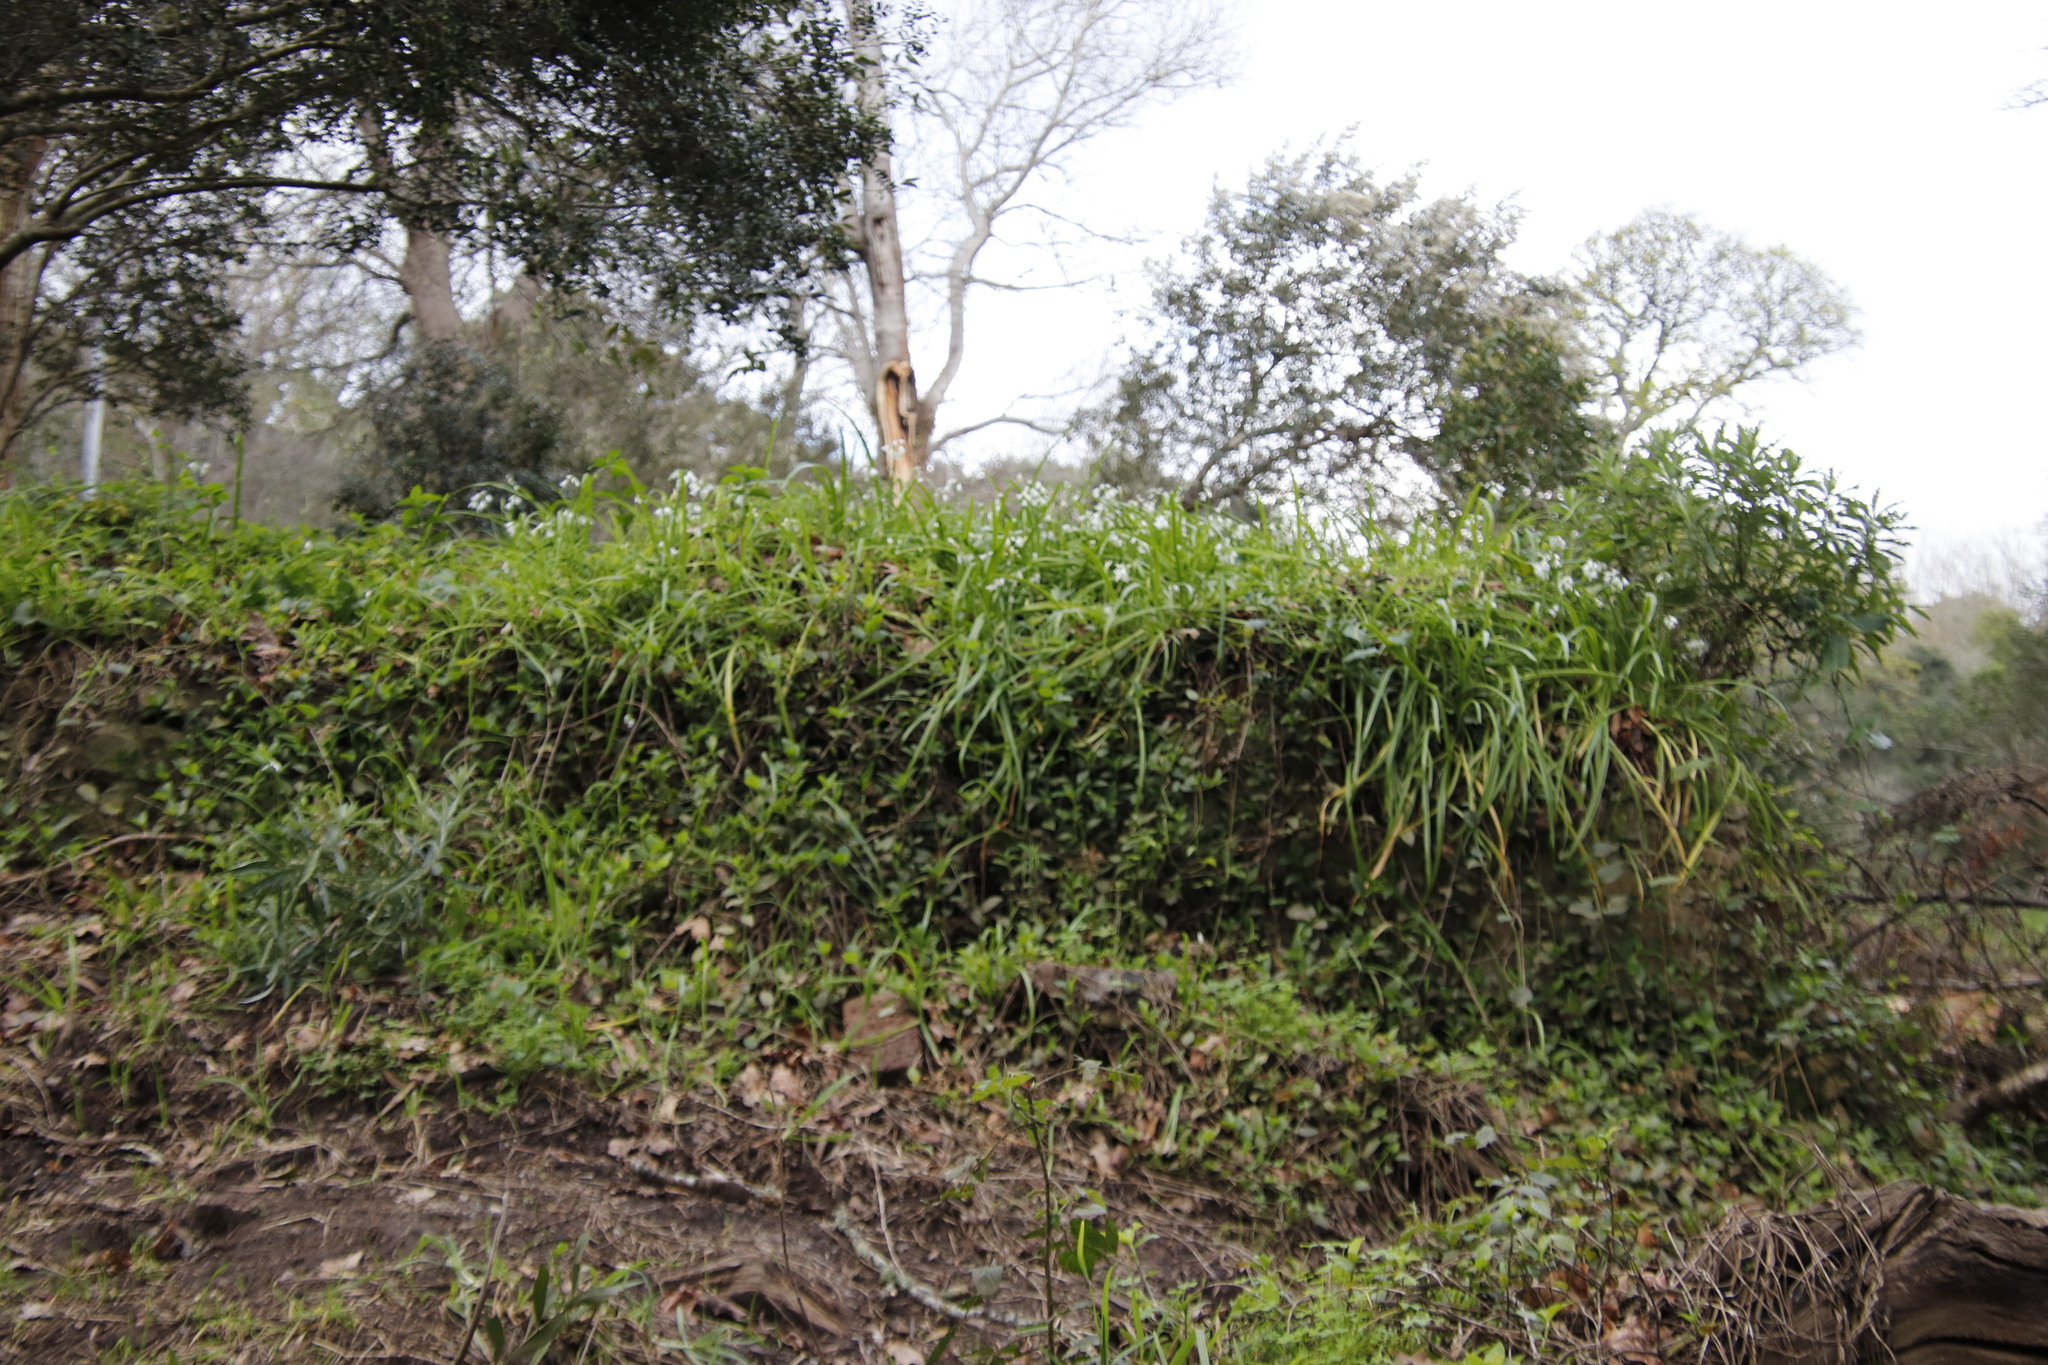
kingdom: Plantae
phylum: Tracheophyta
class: Liliopsida
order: Asparagales
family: Amaryllidaceae
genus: Allium
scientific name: Allium triquetrum
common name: Three-cornered garlic
